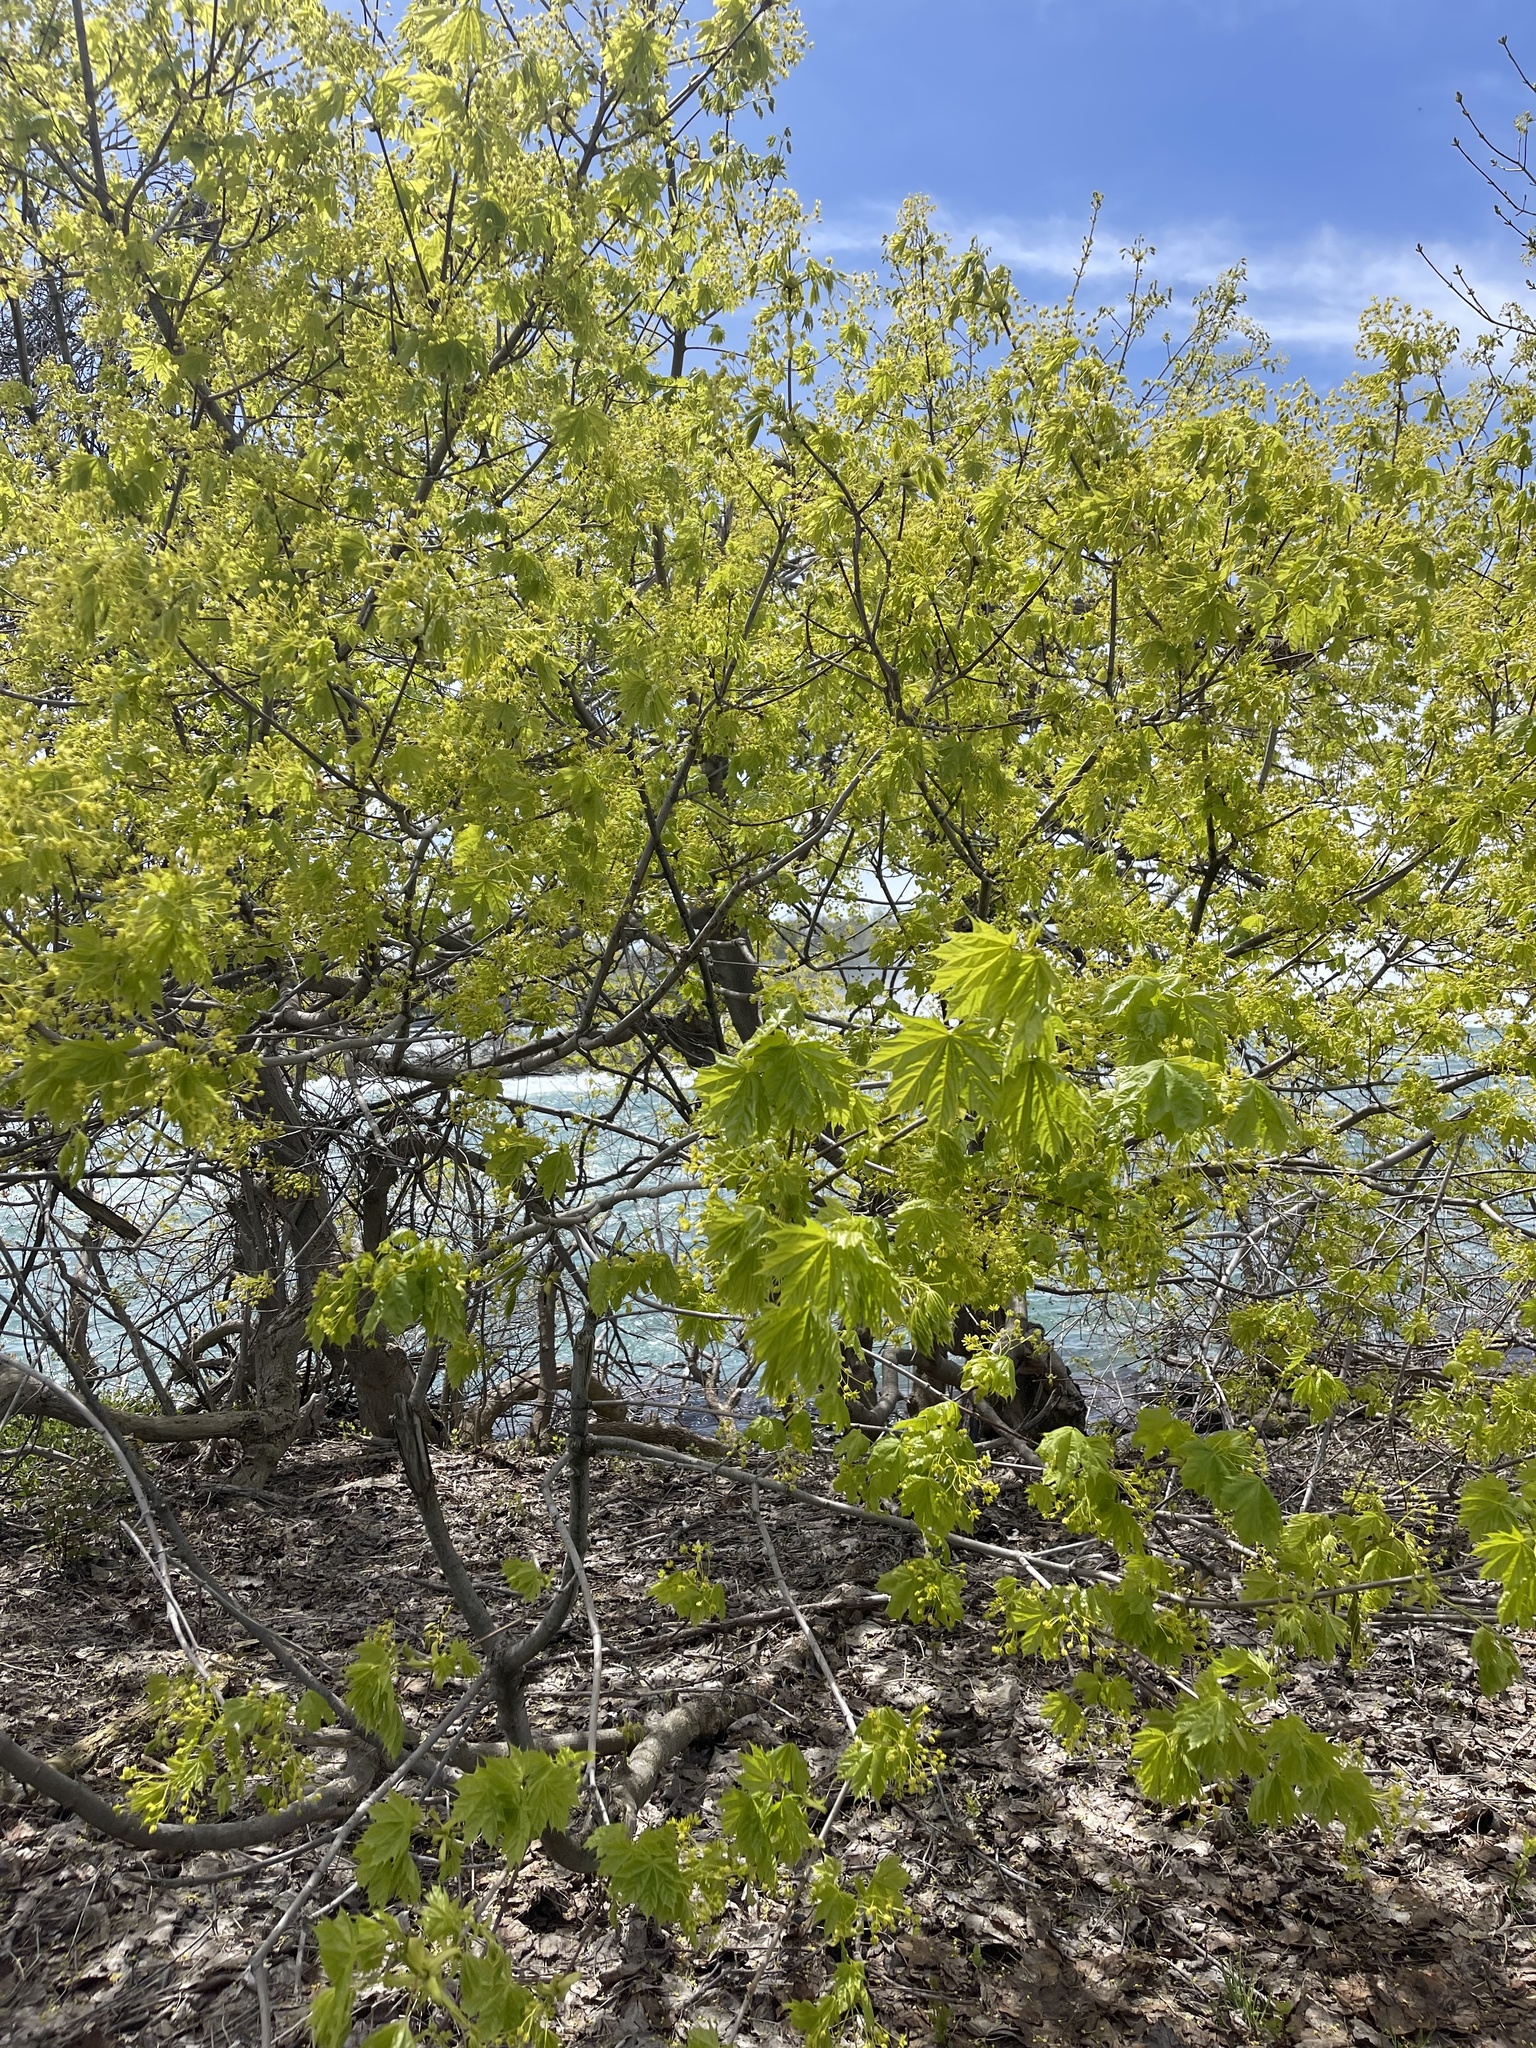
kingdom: Plantae
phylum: Tracheophyta
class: Magnoliopsida
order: Sapindales
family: Sapindaceae
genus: Acer
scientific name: Acer platanoides
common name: Norway maple
